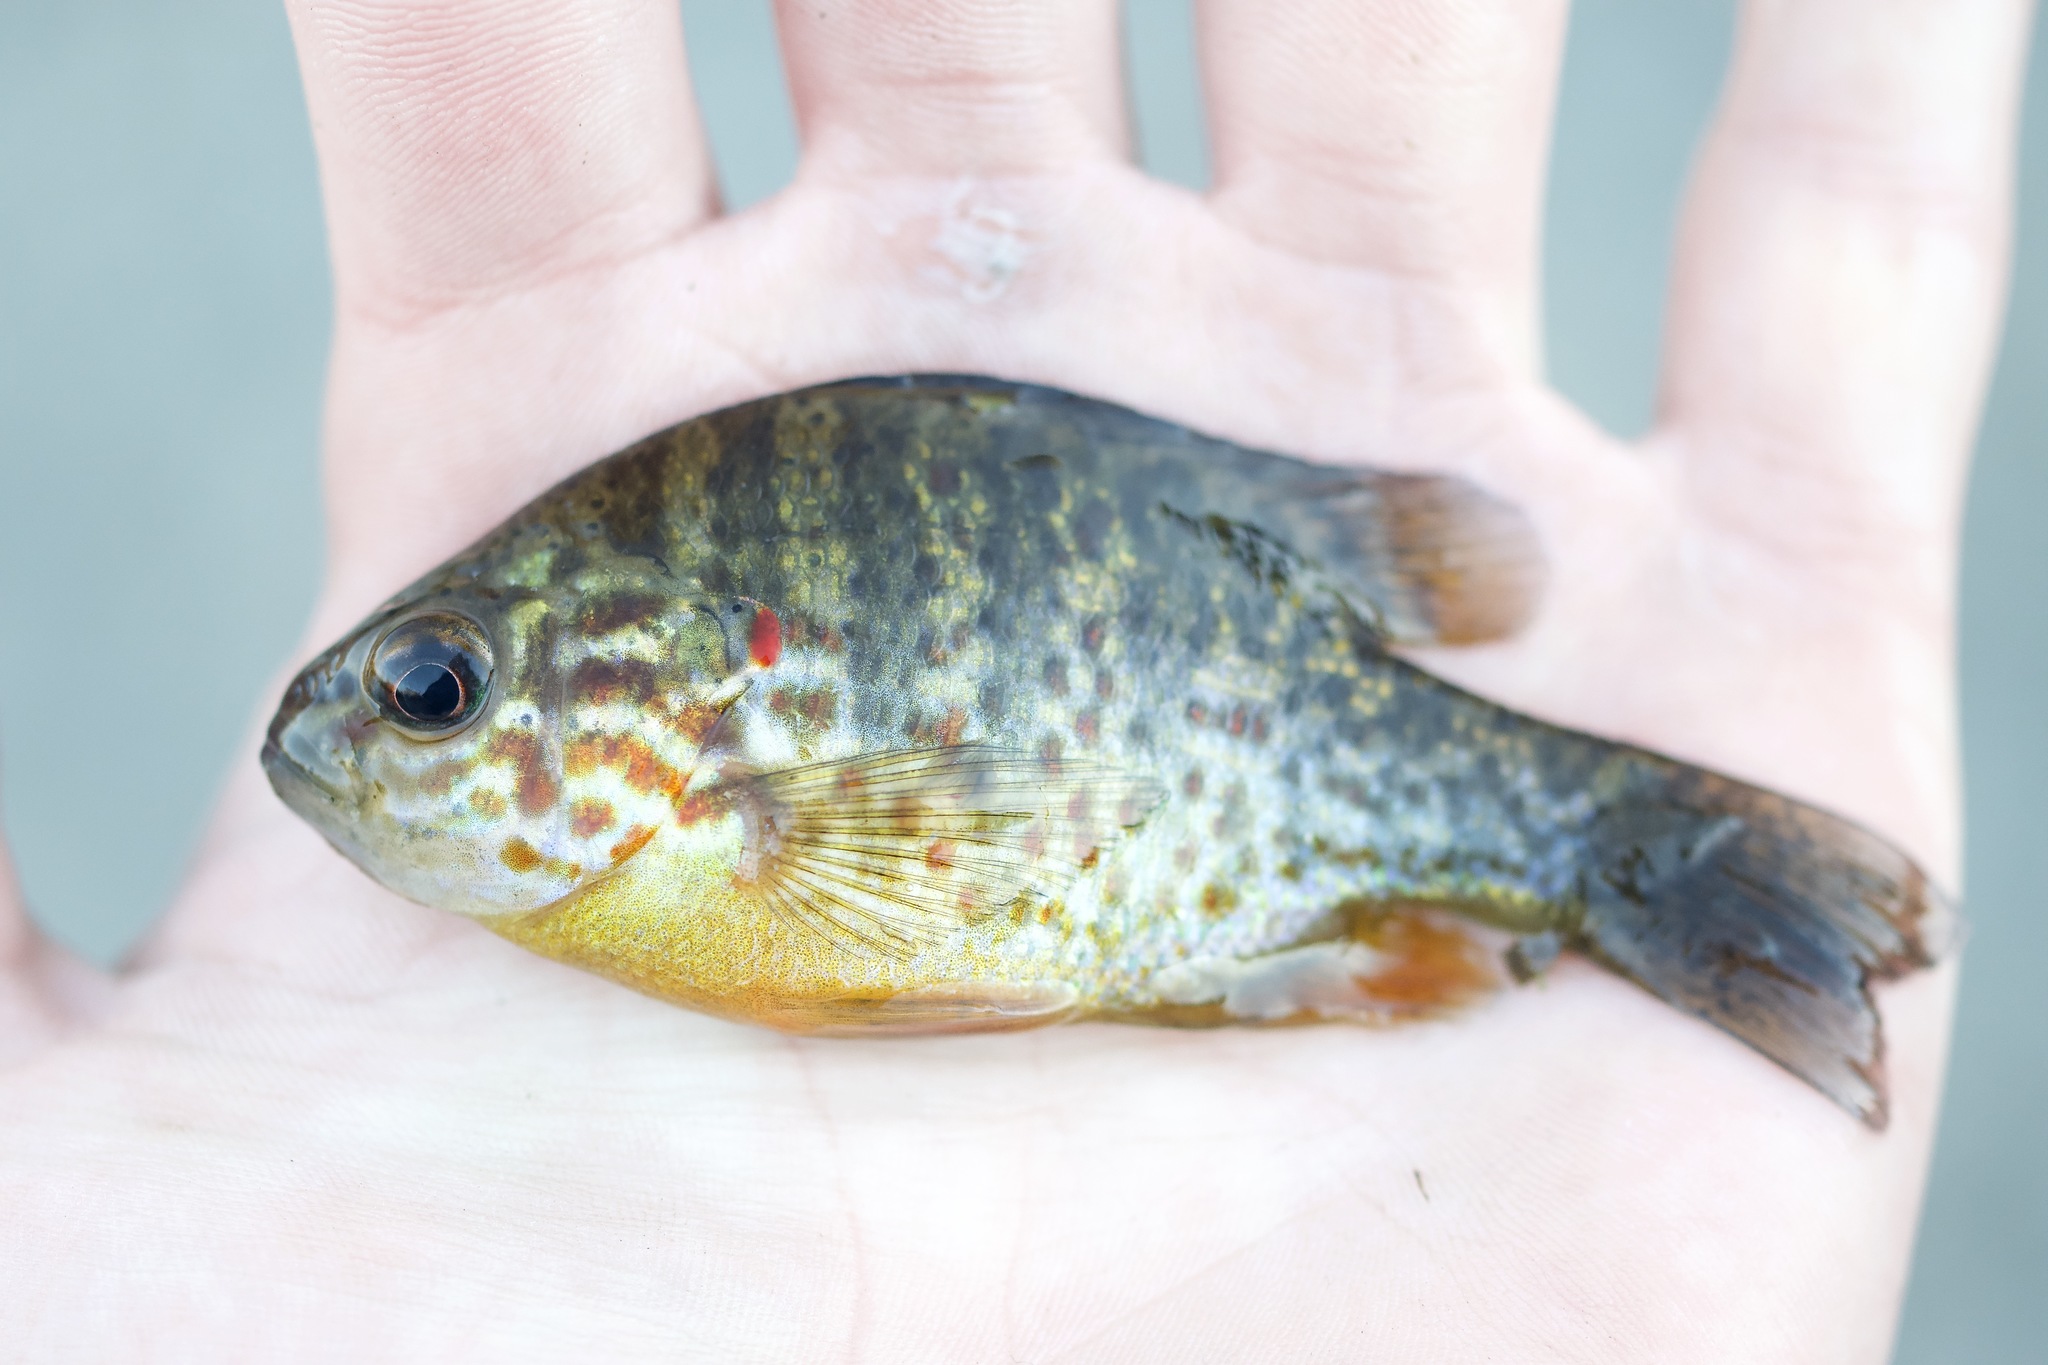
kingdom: Animalia
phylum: Chordata
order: Perciformes
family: Centrarchidae
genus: Lepomis
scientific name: Lepomis gibbosus
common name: Pumpkinseed
